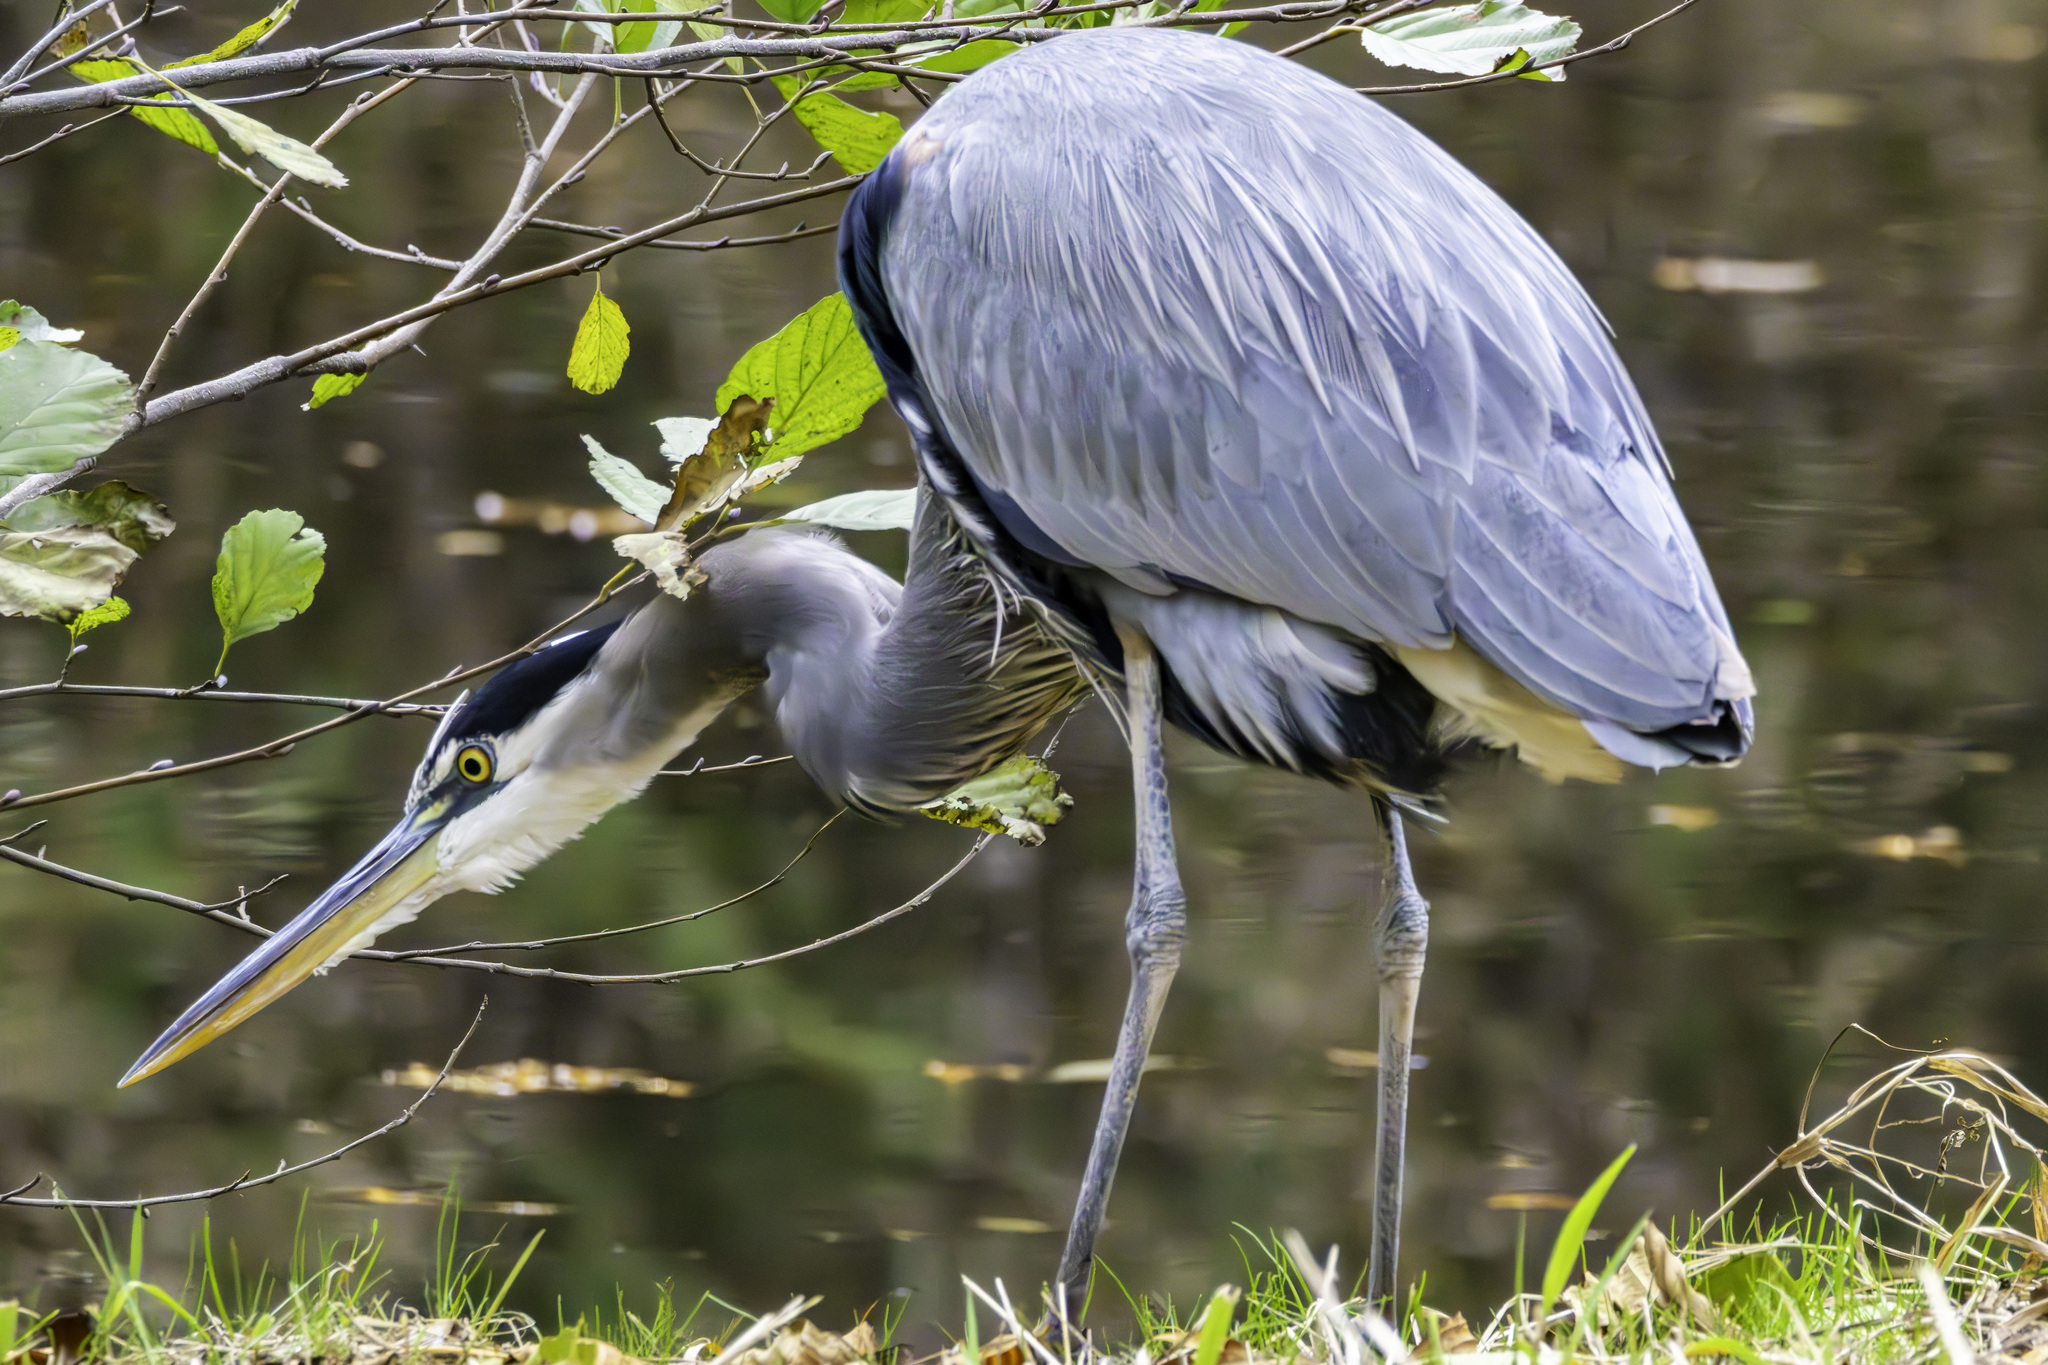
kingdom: Animalia
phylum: Chordata
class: Aves
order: Pelecaniformes
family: Ardeidae
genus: Ardea
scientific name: Ardea herodias
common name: Great blue heron
